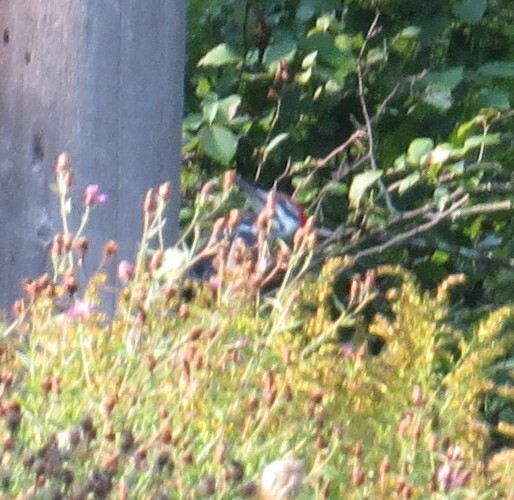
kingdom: Animalia
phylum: Chordata
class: Aves
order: Piciformes
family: Picidae
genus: Dryocopus
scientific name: Dryocopus pileatus
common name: Pileated woodpecker
